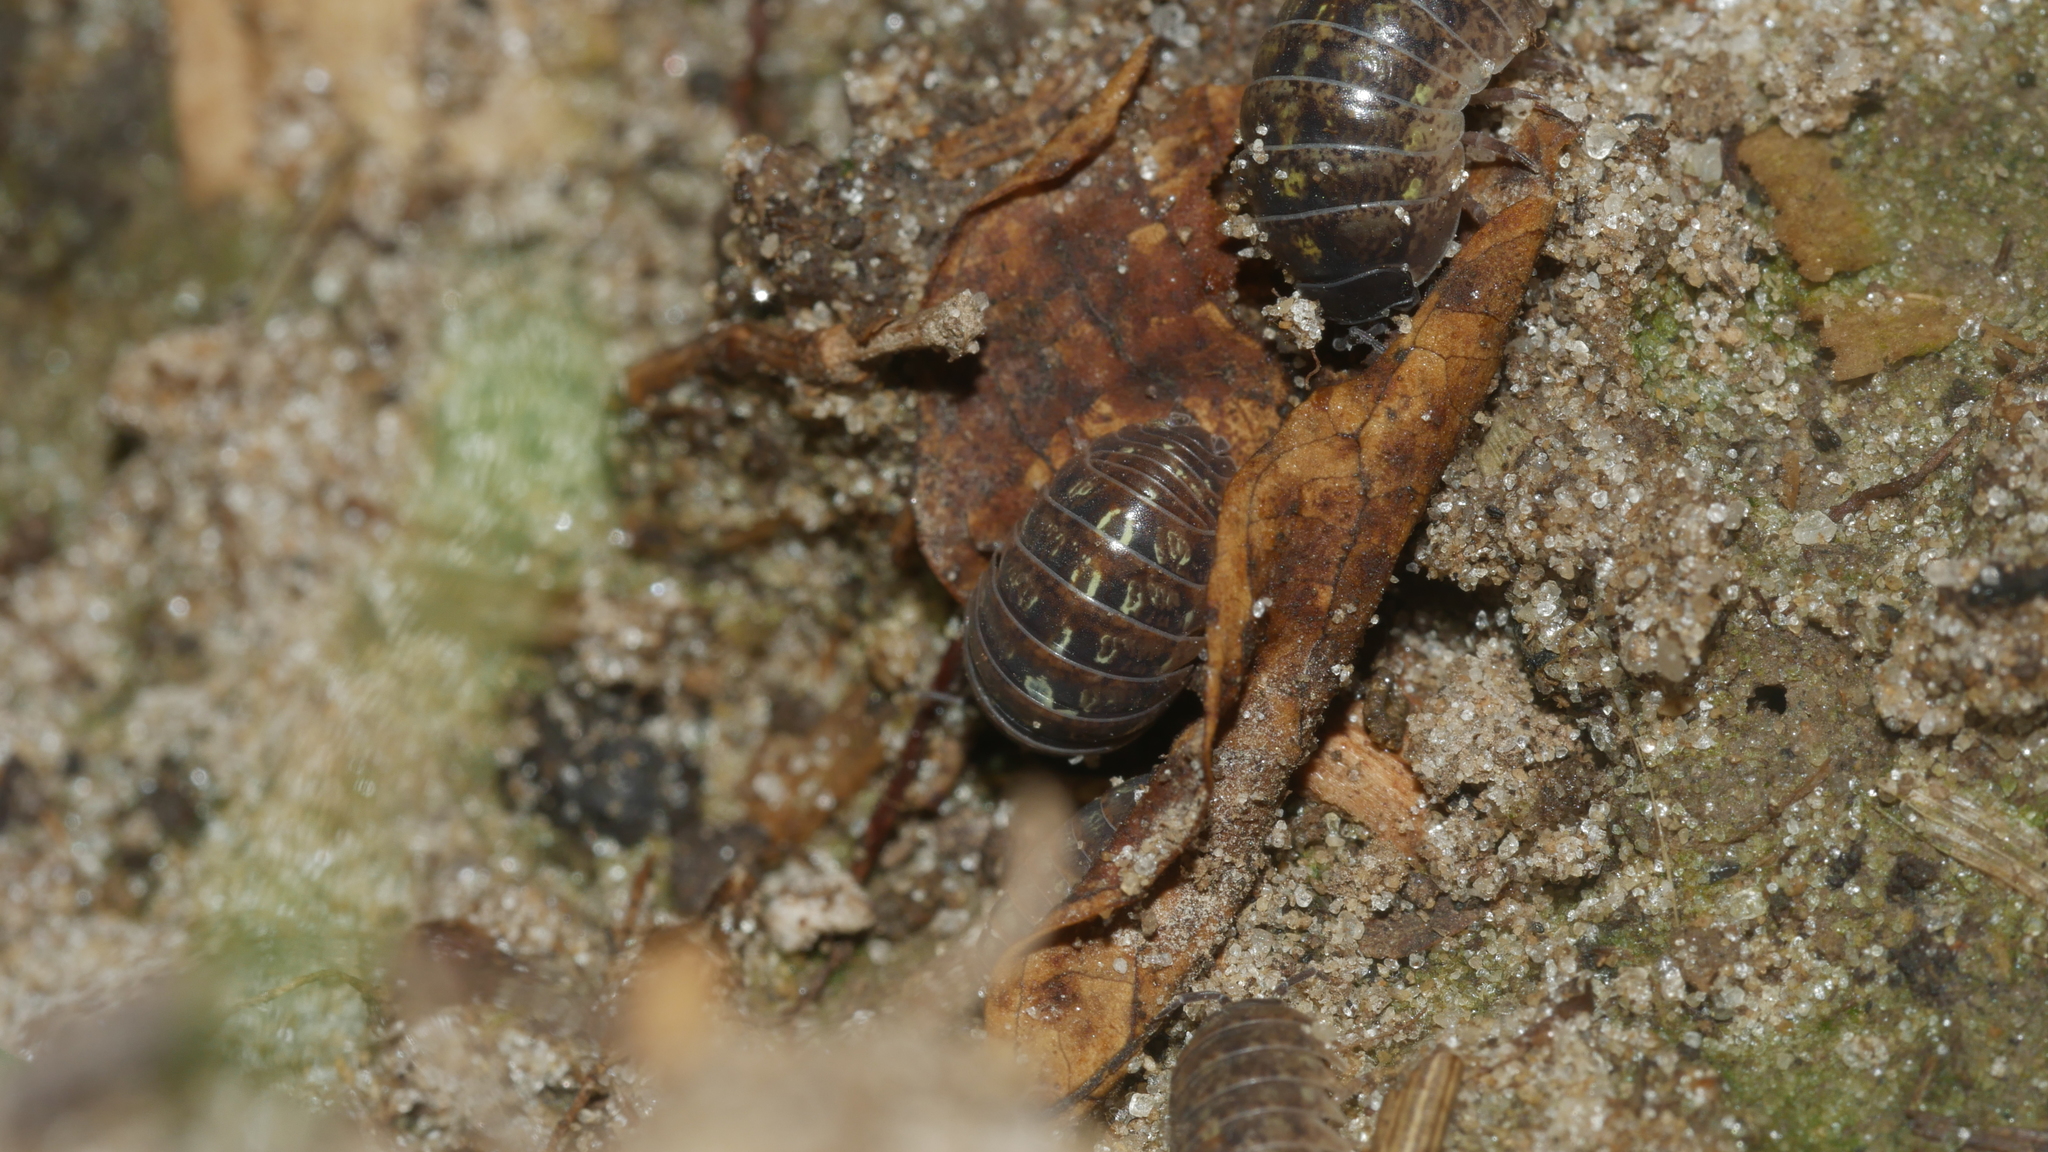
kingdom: Animalia
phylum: Arthropoda
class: Malacostraca
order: Isopoda
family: Armadillidiidae
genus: Armadillidium
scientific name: Armadillidium vulgare
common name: Common pill woodlouse
